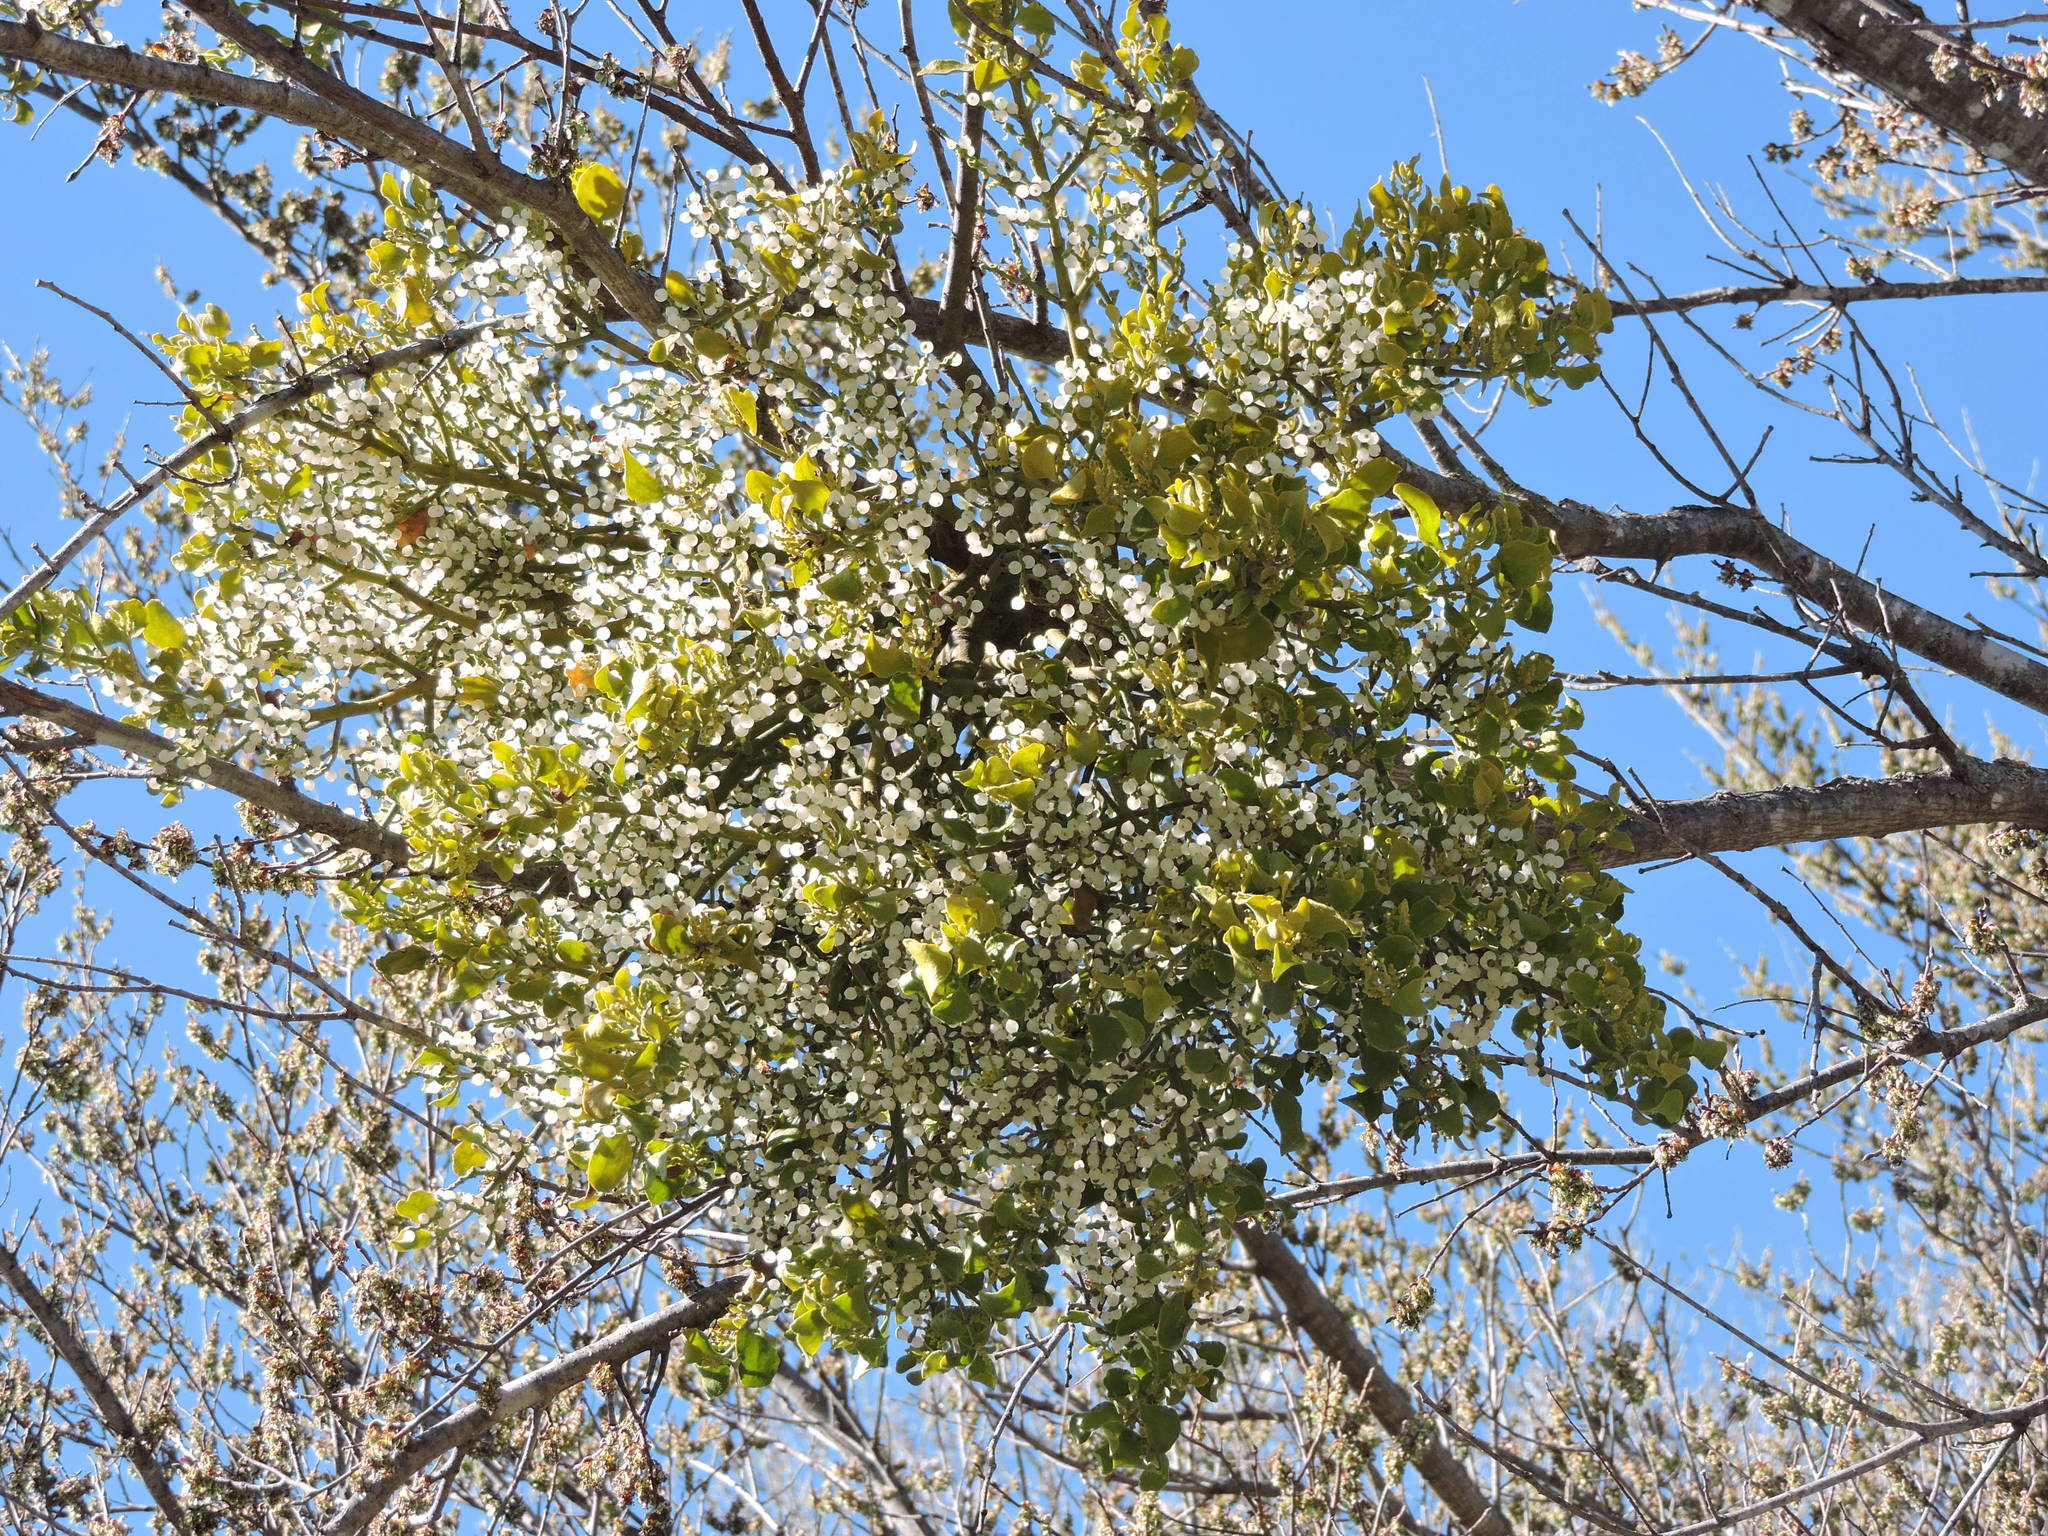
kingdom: Plantae
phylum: Tracheophyta
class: Magnoliopsida
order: Santalales
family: Viscaceae
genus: Phoradendron
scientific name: Phoradendron leucarpum
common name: Pacific mistletoe
